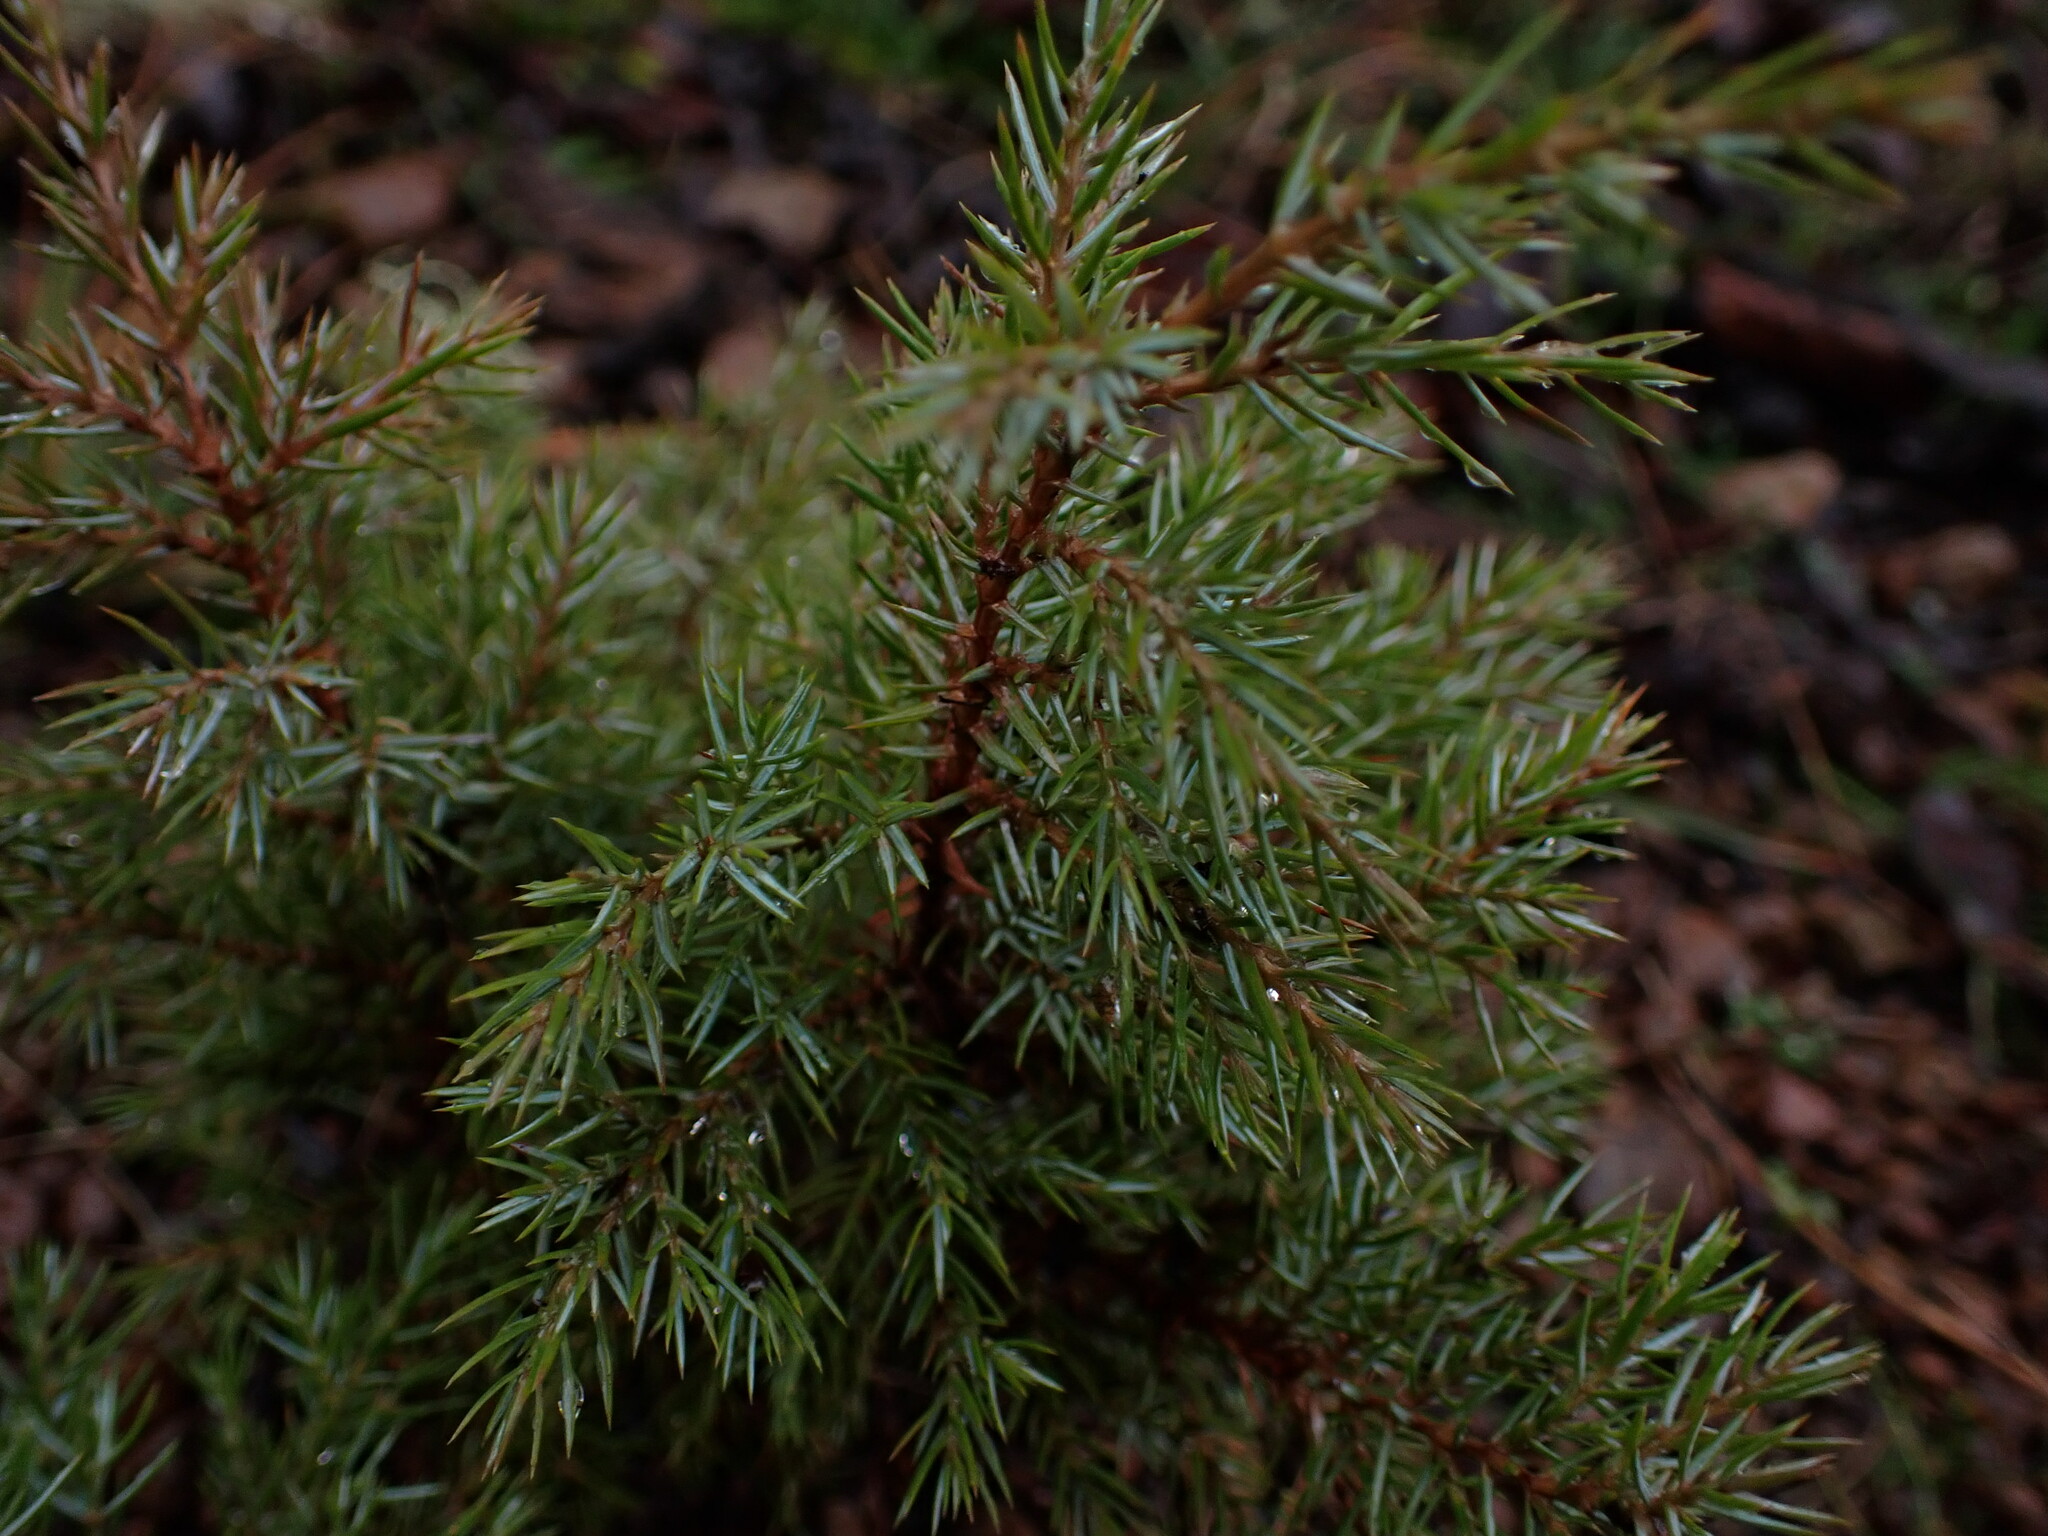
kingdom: Plantae
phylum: Tracheophyta
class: Pinopsida
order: Pinales
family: Cupressaceae
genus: Juniperus
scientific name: Juniperus communis
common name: Common juniper
